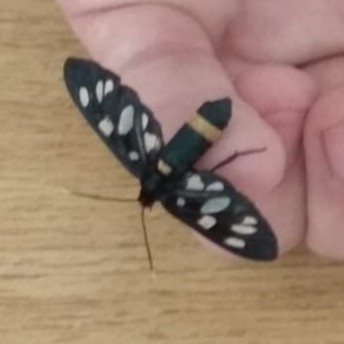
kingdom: Animalia
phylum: Arthropoda
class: Insecta
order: Lepidoptera
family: Erebidae
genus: Amata
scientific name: Amata phegea
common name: Nine-spotted
